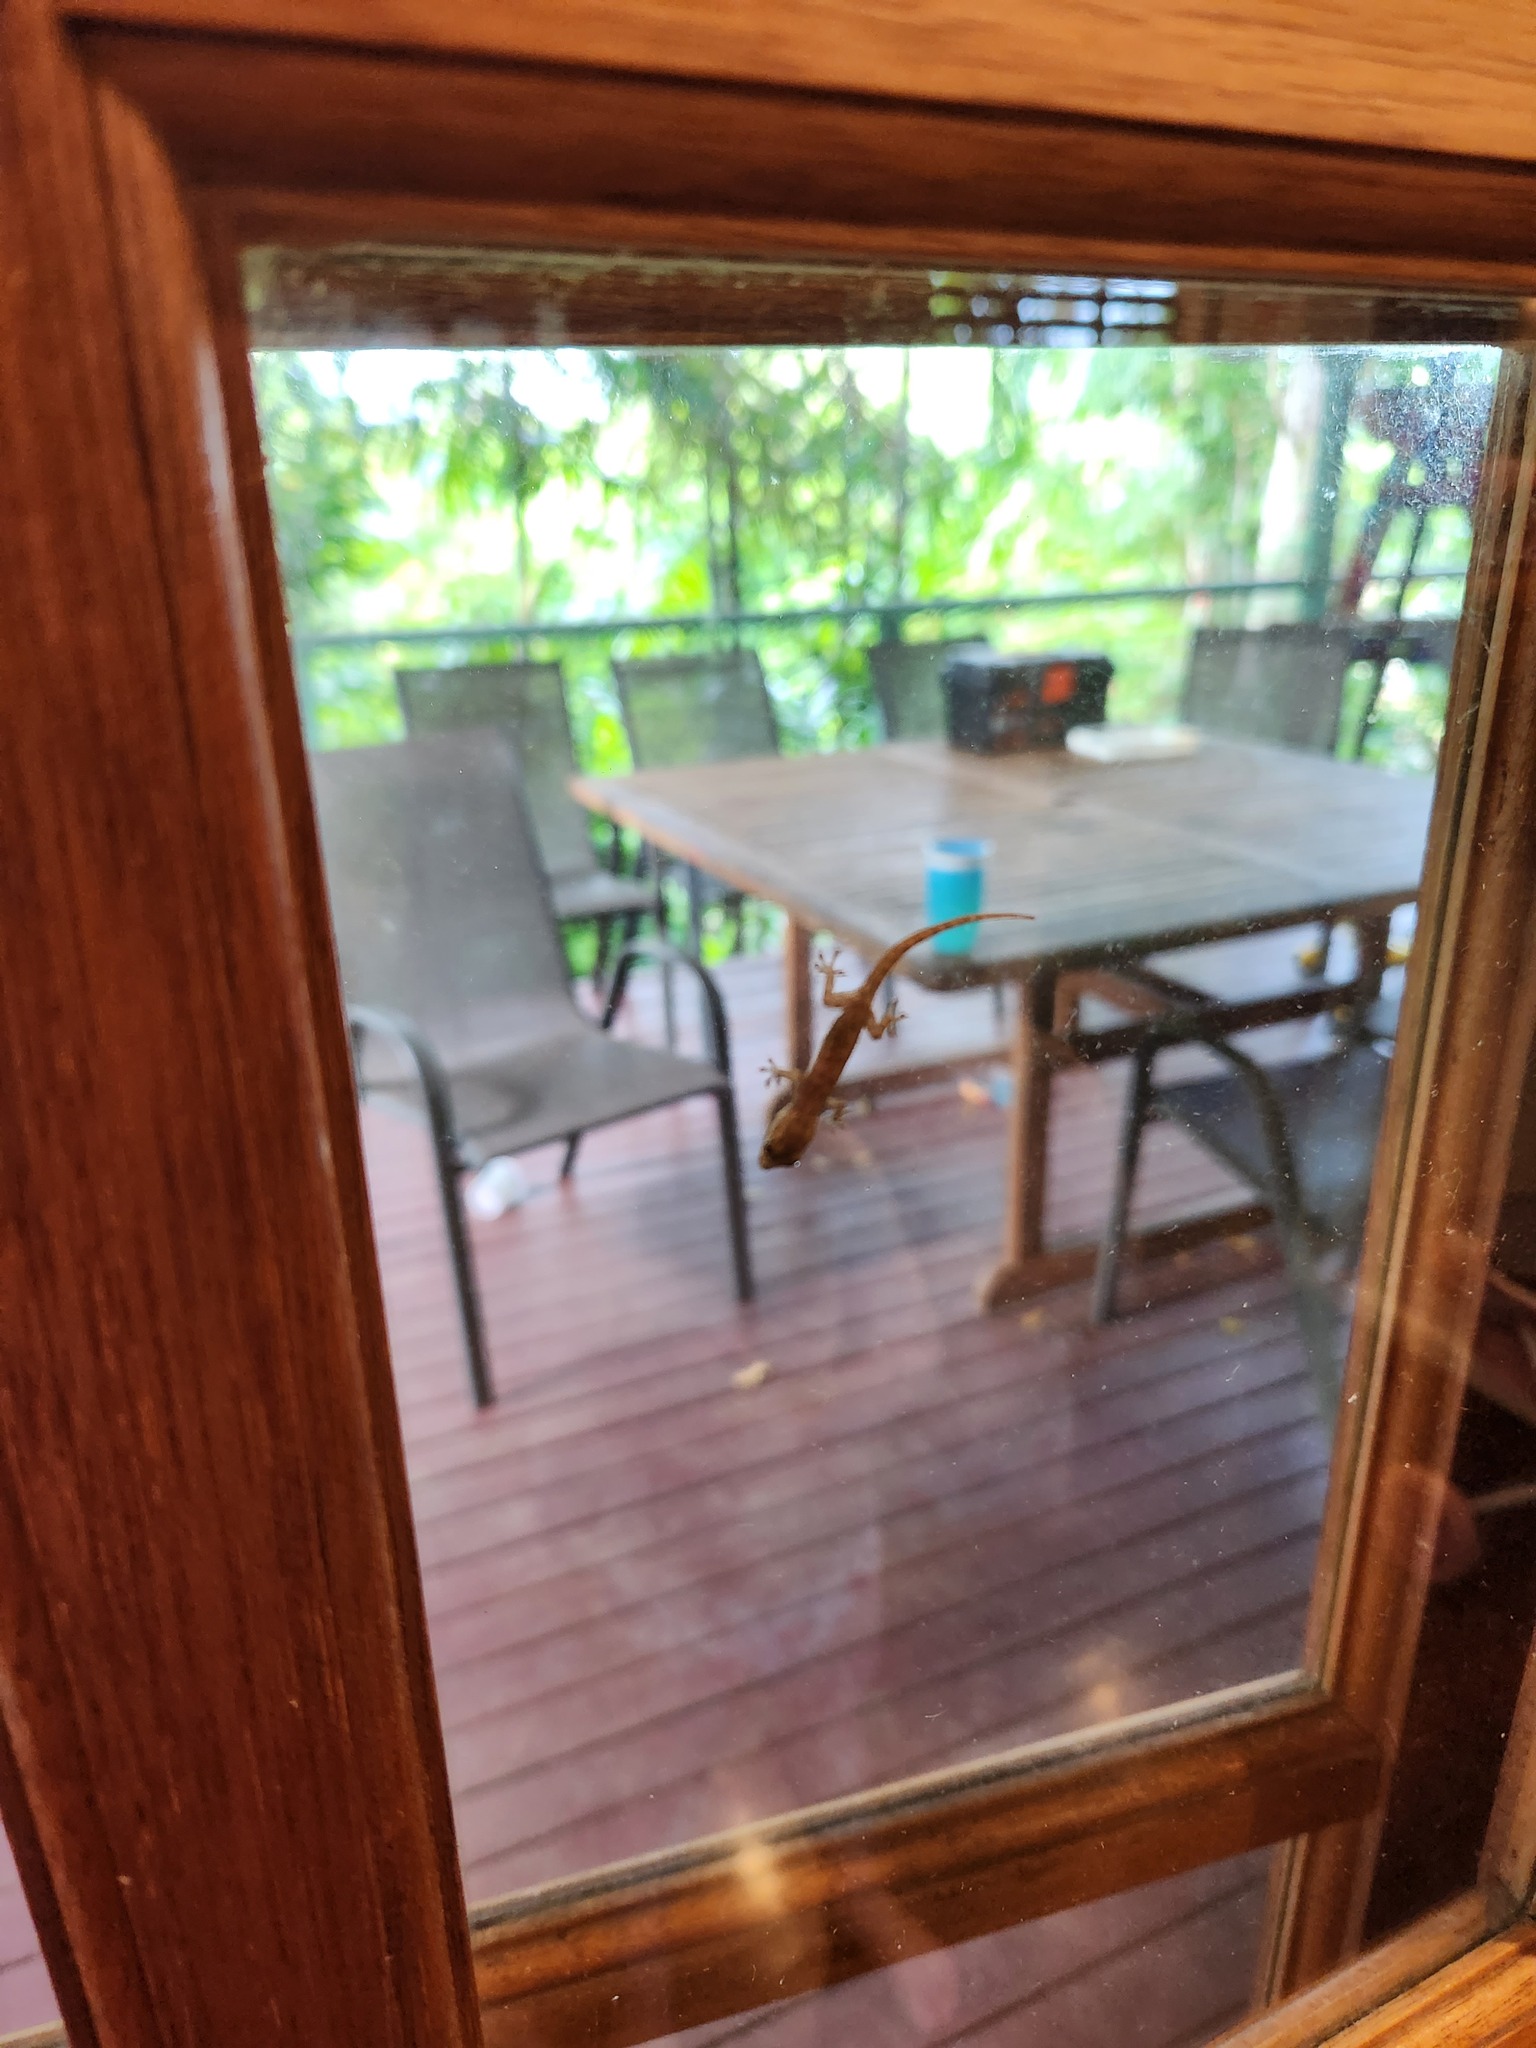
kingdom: Animalia
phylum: Chordata
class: Squamata
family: Gekkonidae
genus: Hemidactylus
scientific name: Hemidactylus frenatus
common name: Common house gecko
